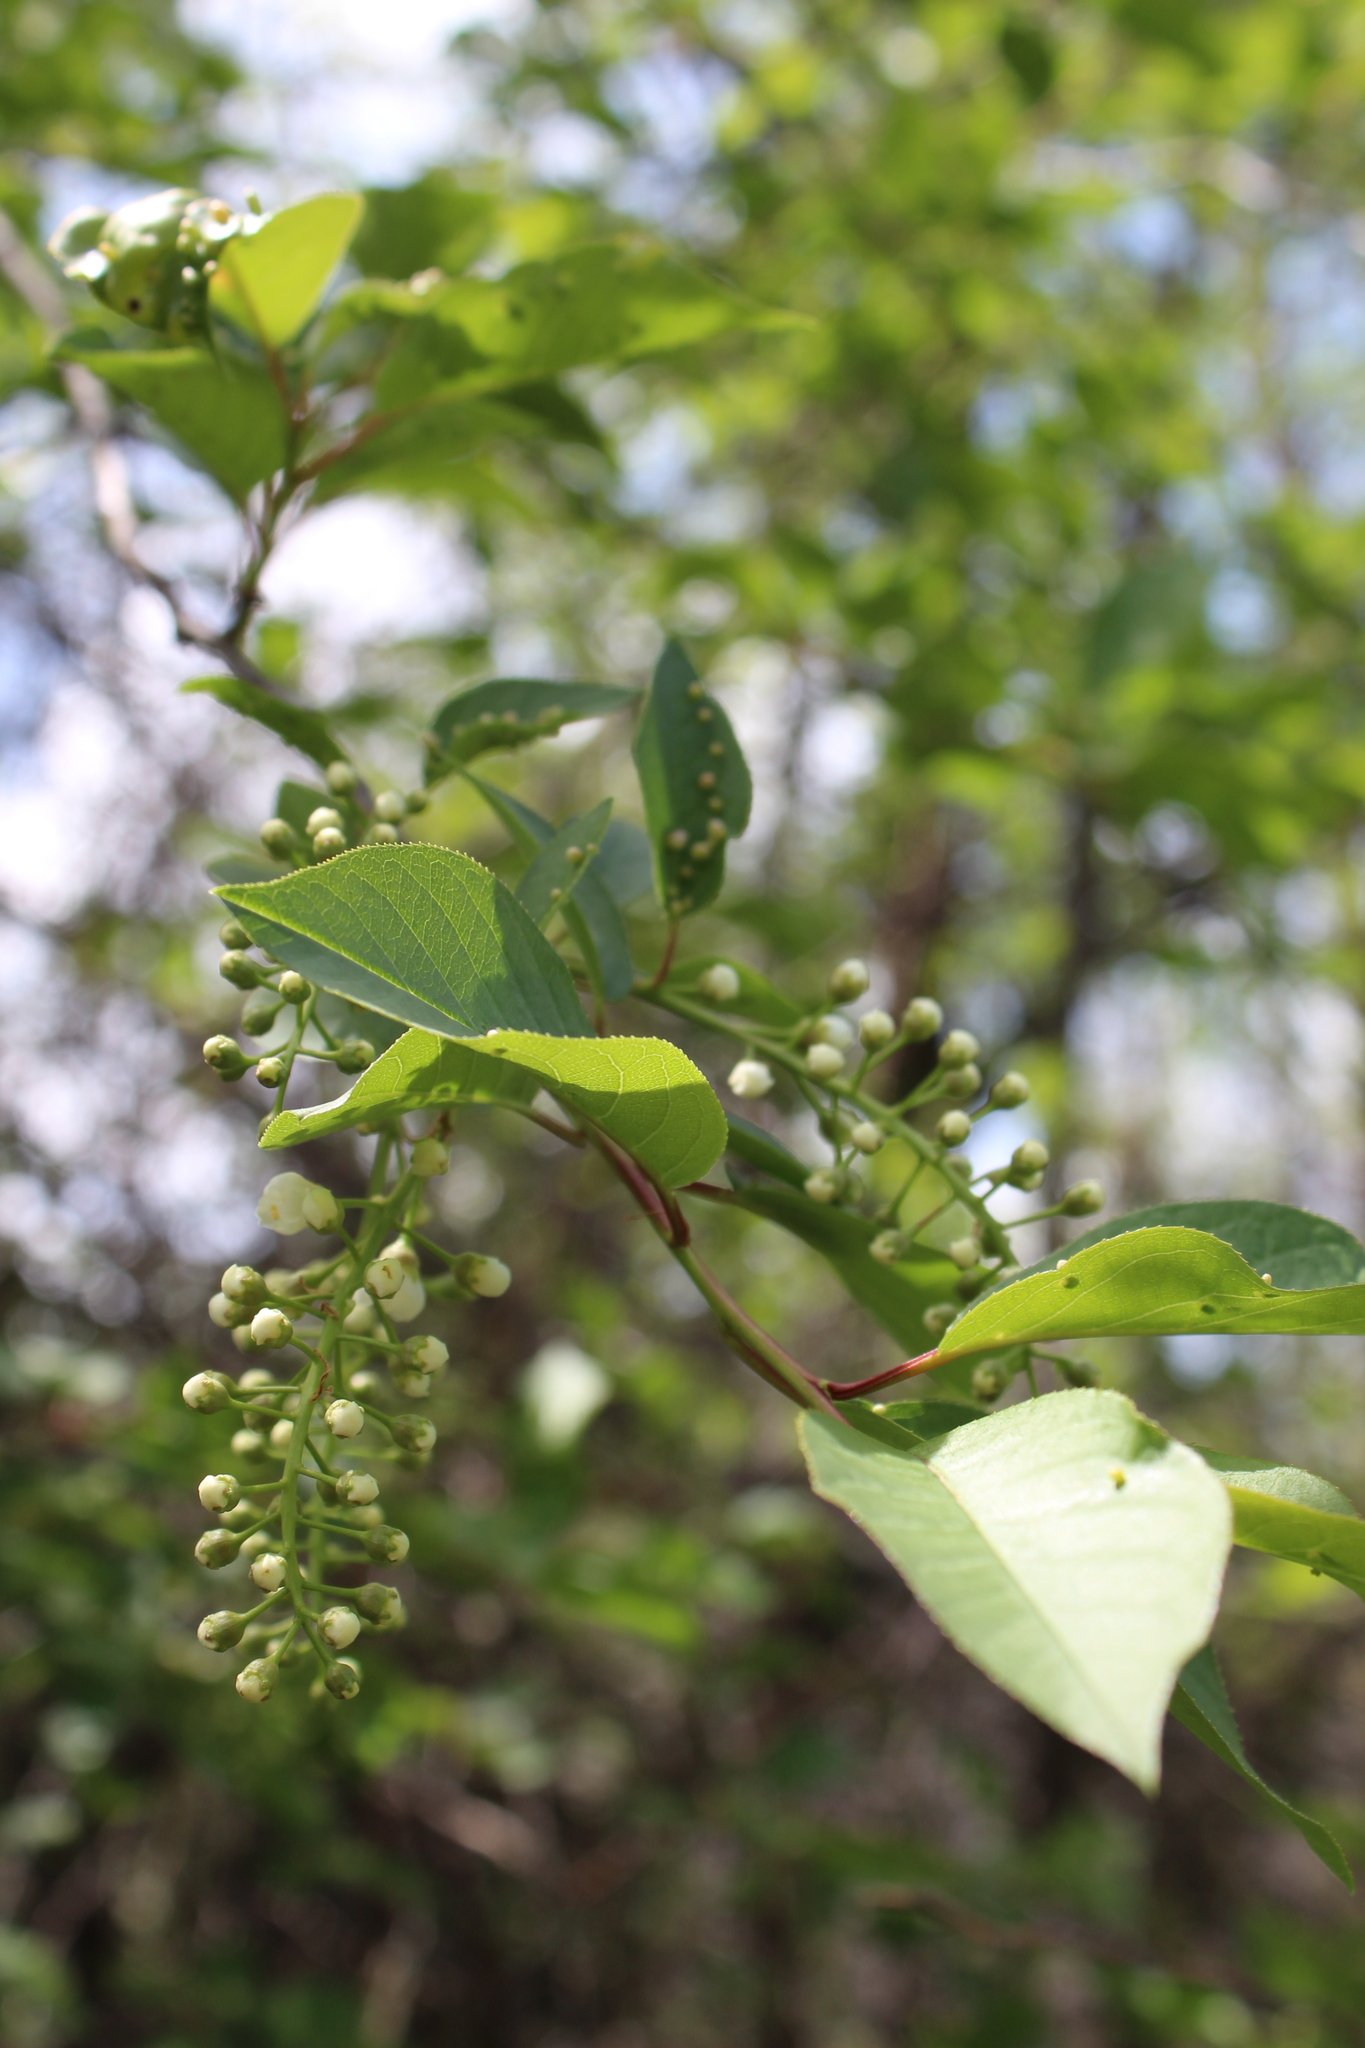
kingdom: Plantae
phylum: Tracheophyta
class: Magnoliopsida
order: Rosales
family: Rosaceae
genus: Prunus
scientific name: Prunus virginiana
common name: Chokecherry
